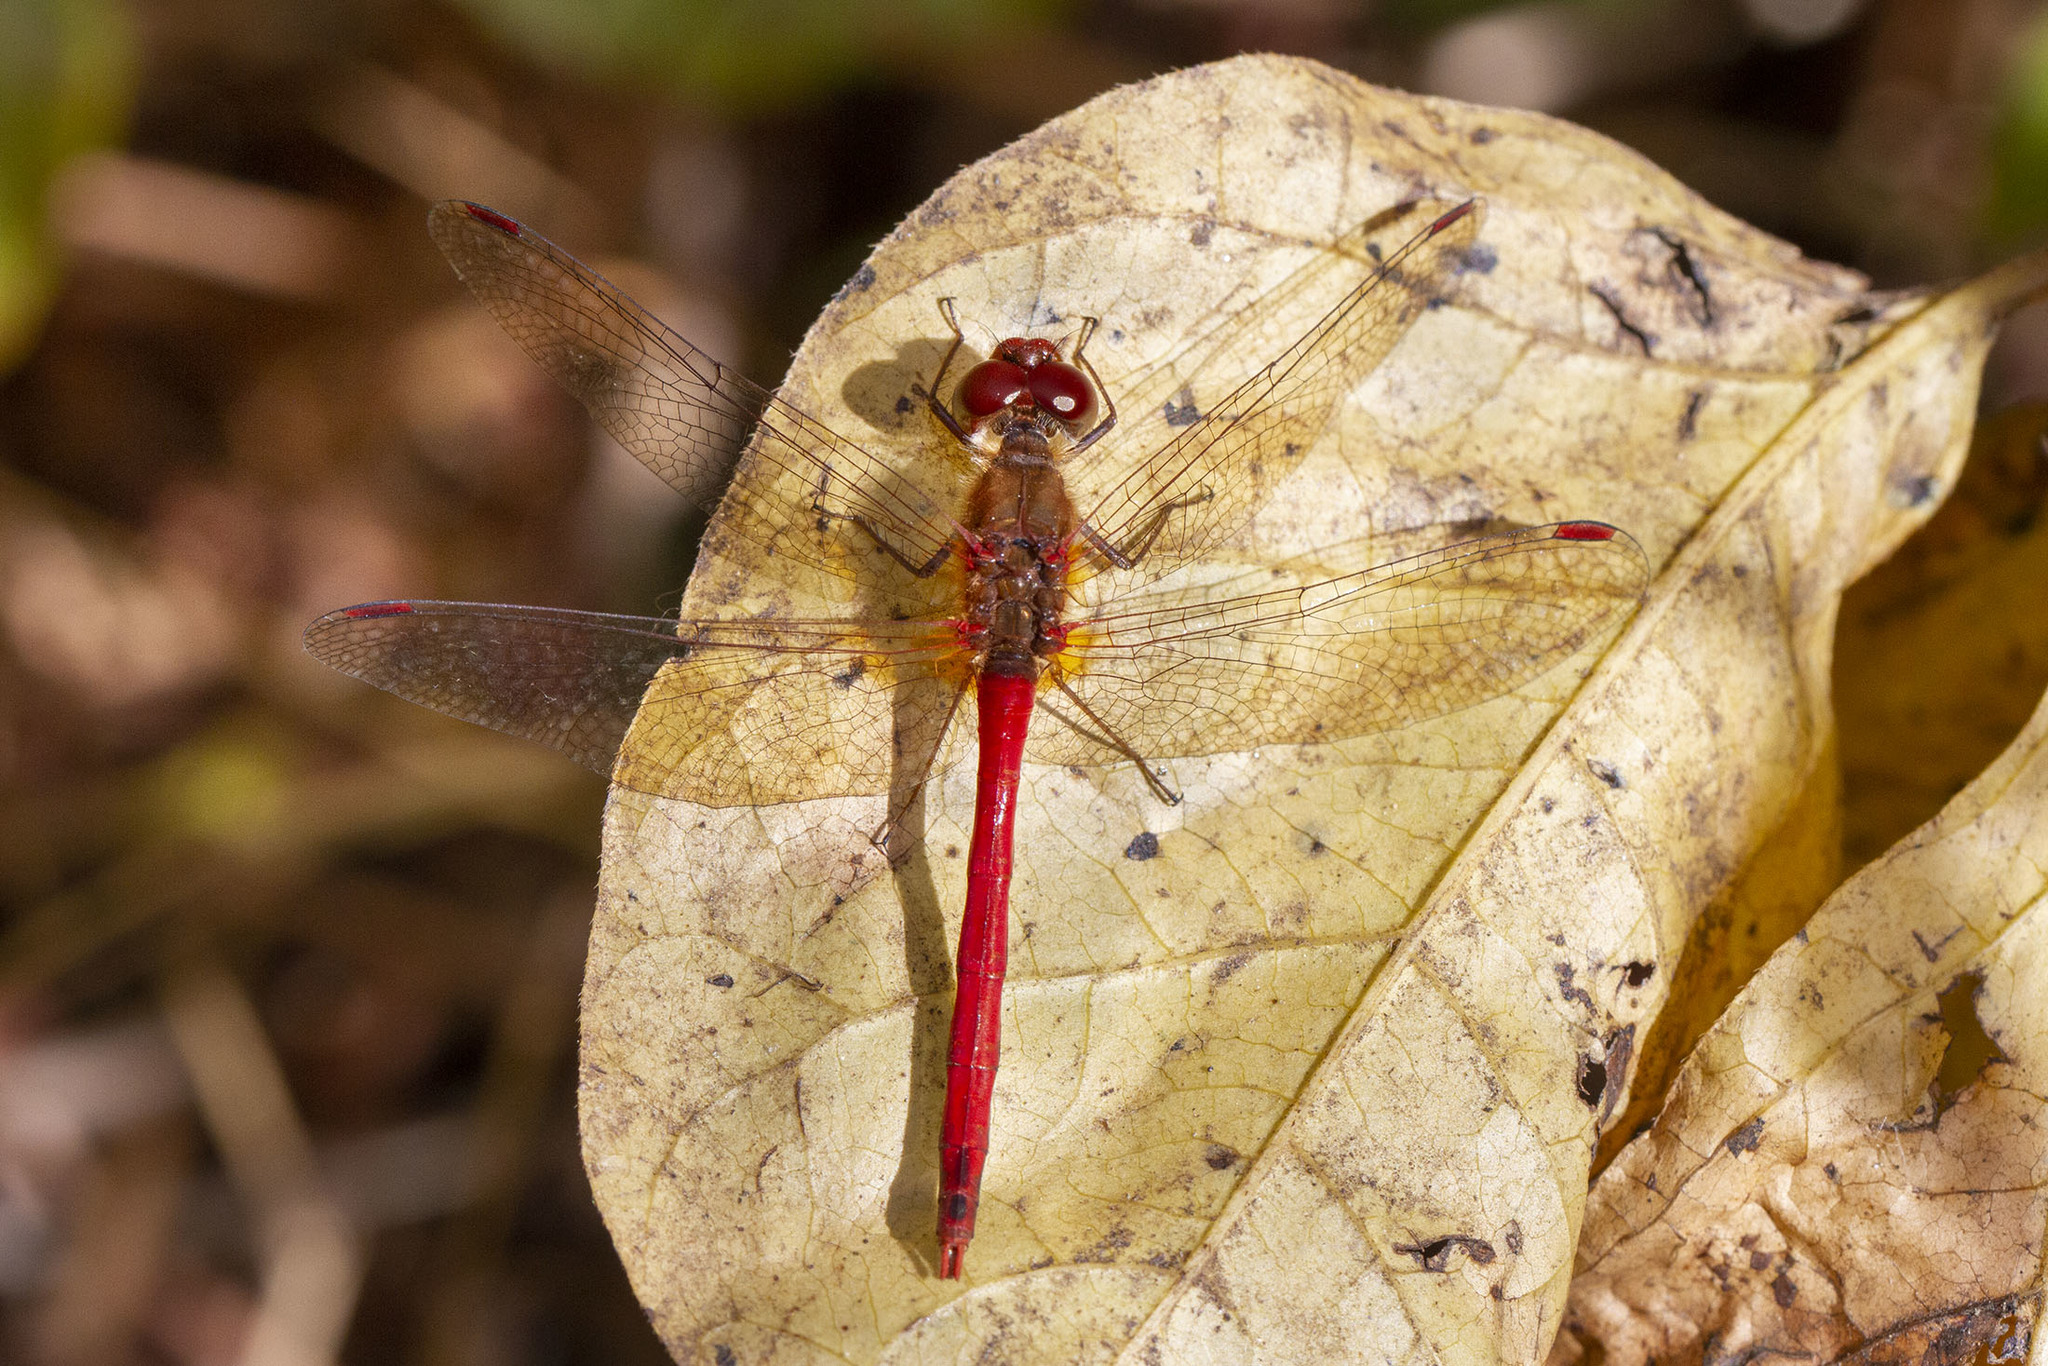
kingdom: Animalia
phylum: Arthropoda
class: Insecta
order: Odonata
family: Libellulidae
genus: Sympetrum
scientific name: Sympetrum vicinum
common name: Autumn meadowhawk
